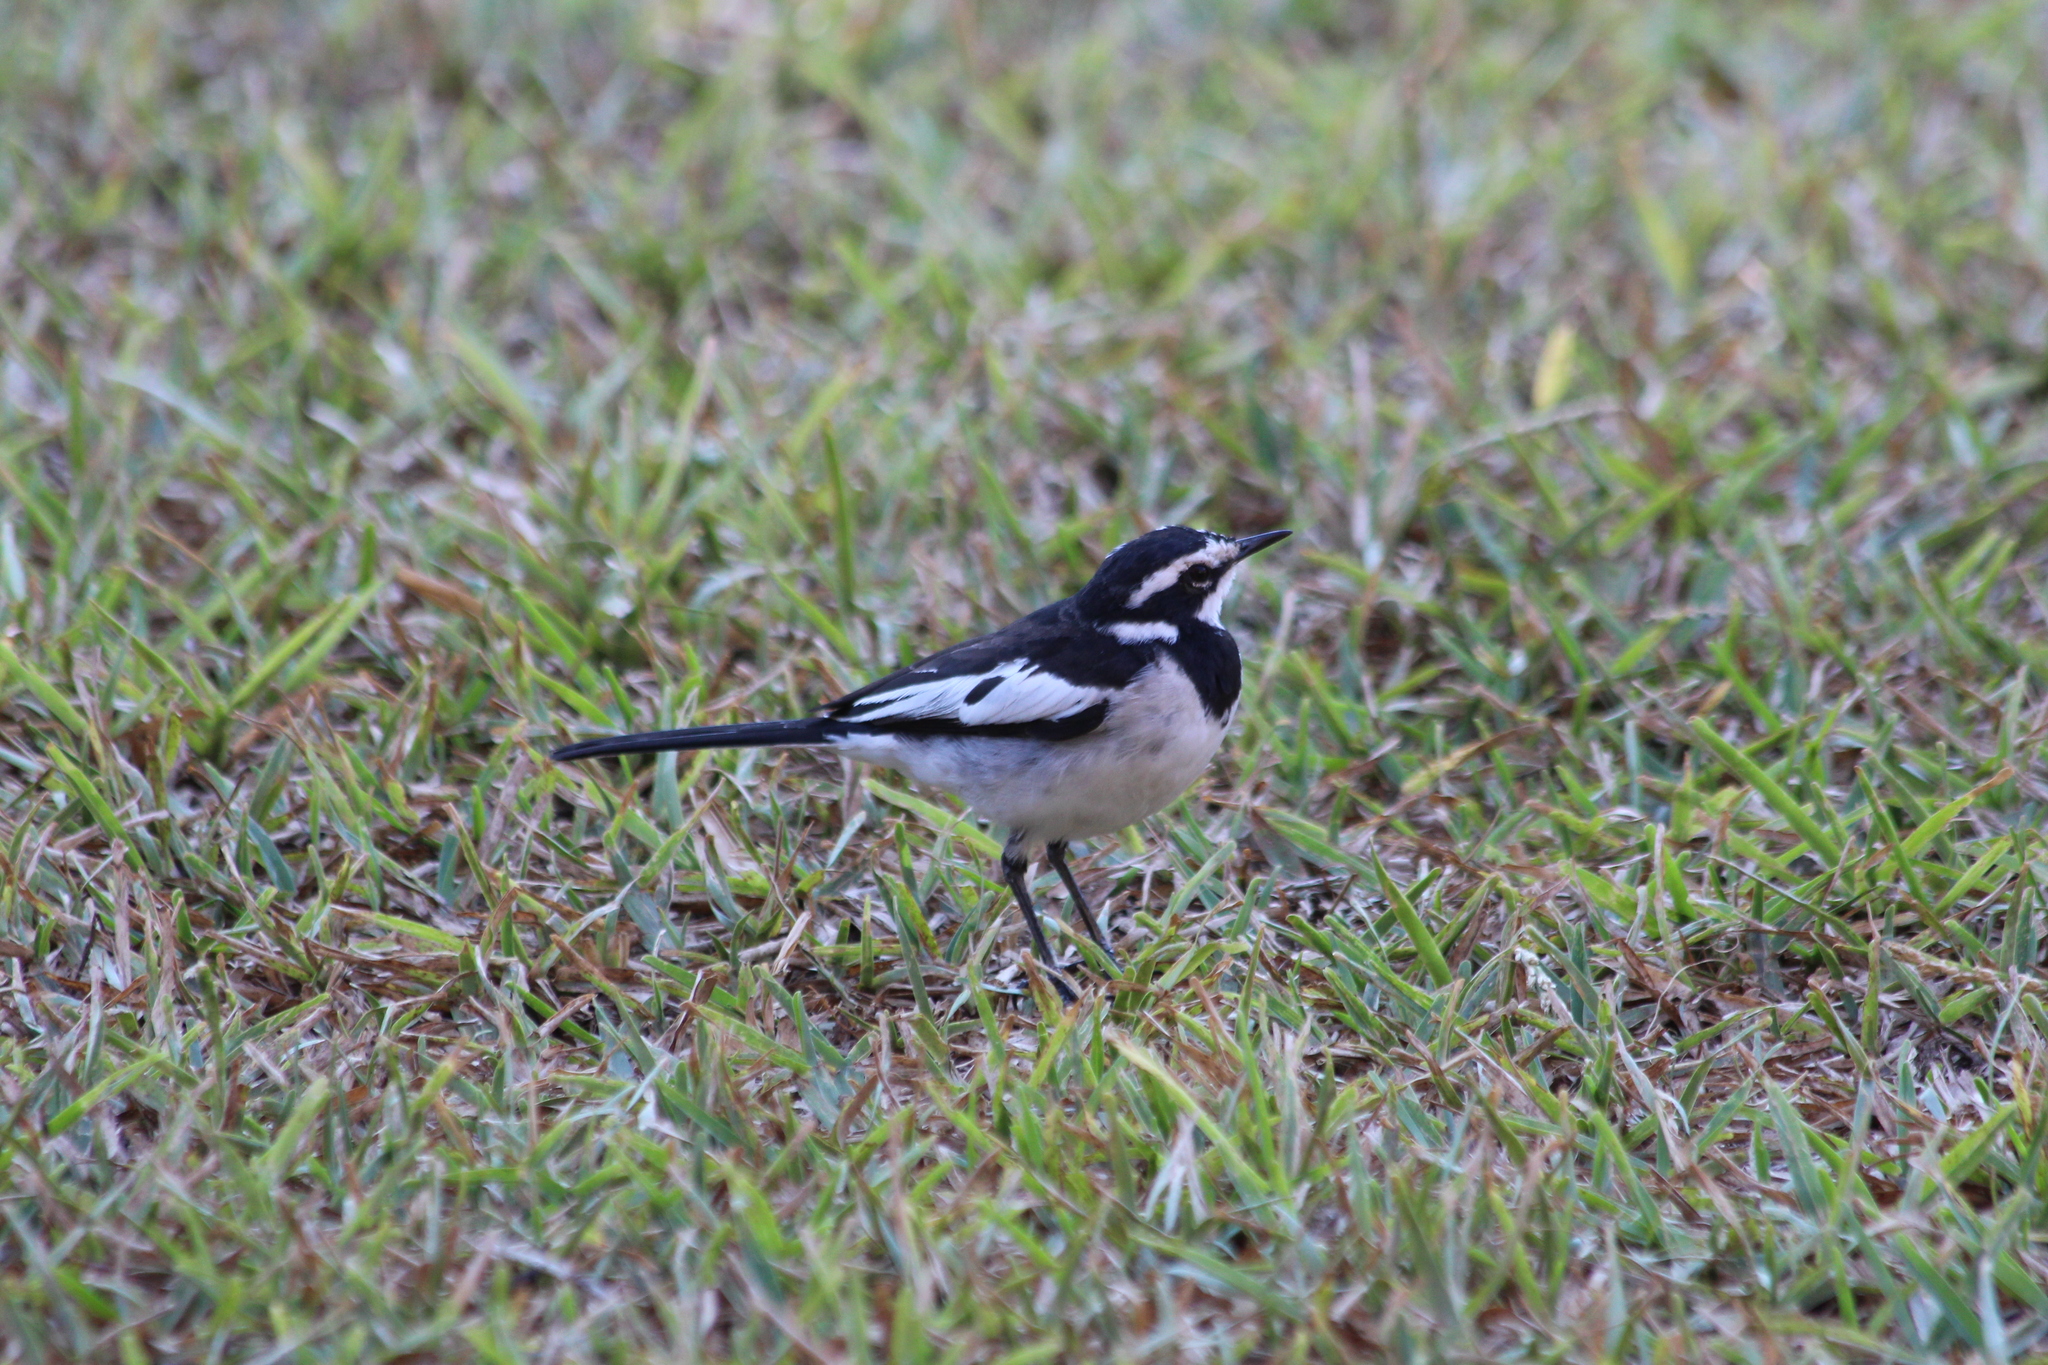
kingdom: Animalia
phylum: Chordata
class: Aves
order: Passeriformes
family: Motacillidae
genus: Motacilla
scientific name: Motacilla aguimp
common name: African pied wagtail
